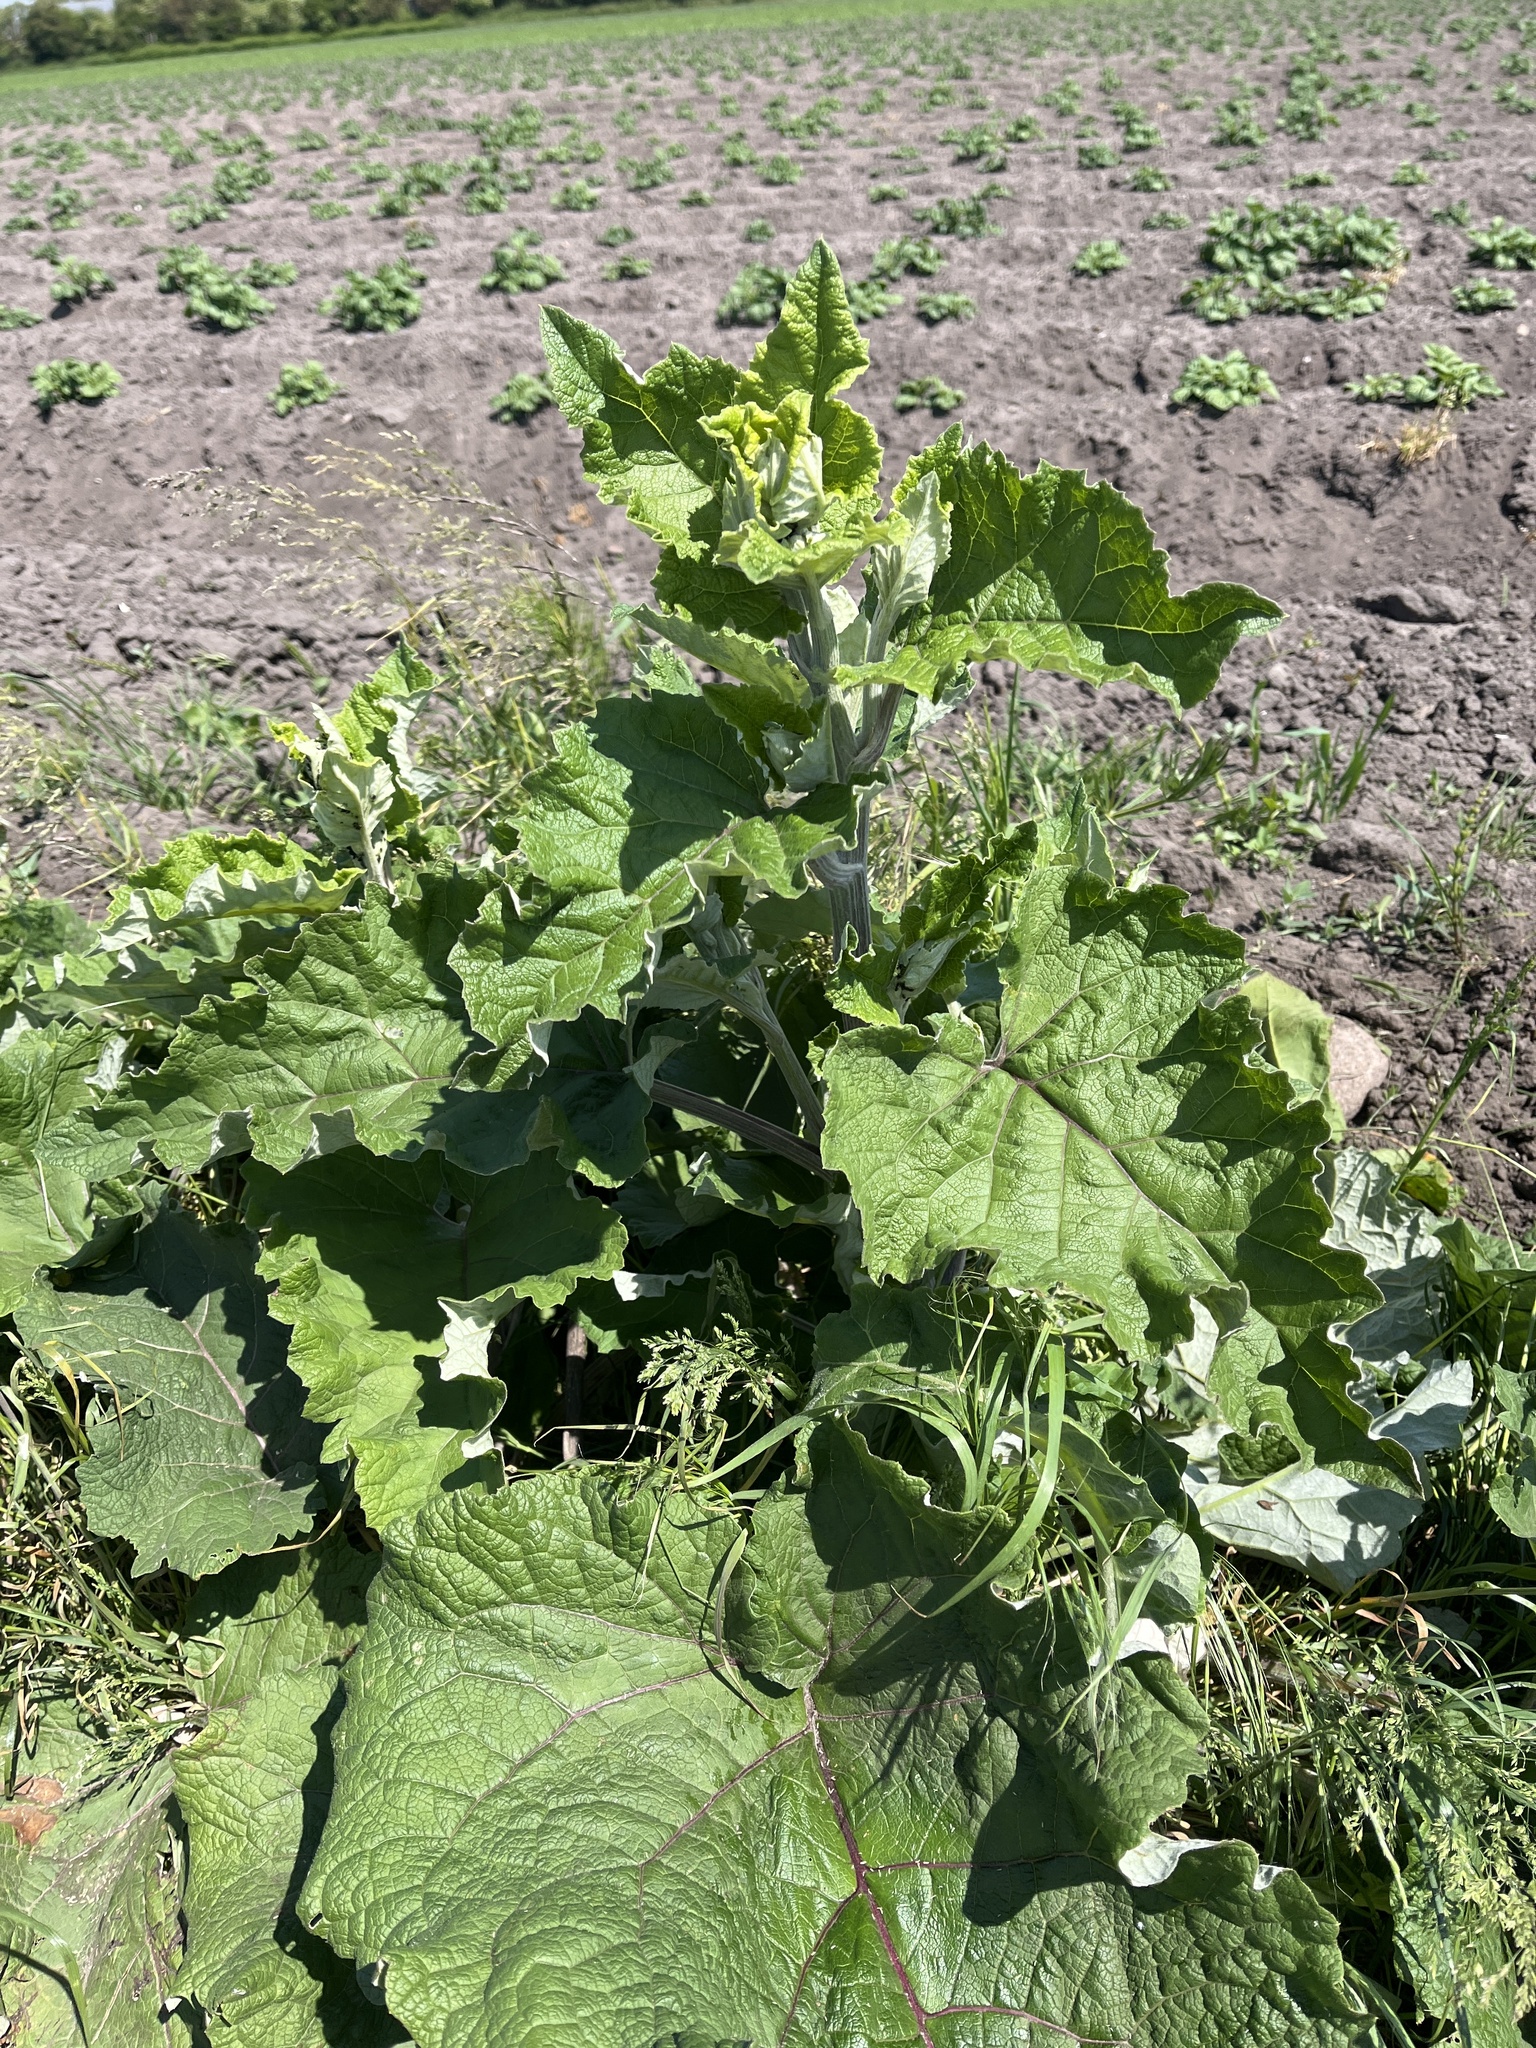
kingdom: Plantae
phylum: Tracheophyta
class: Magnoliopsida
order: Asterales
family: Asteraceae
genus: Arctium
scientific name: Arctium minus
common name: Lesser burdock
